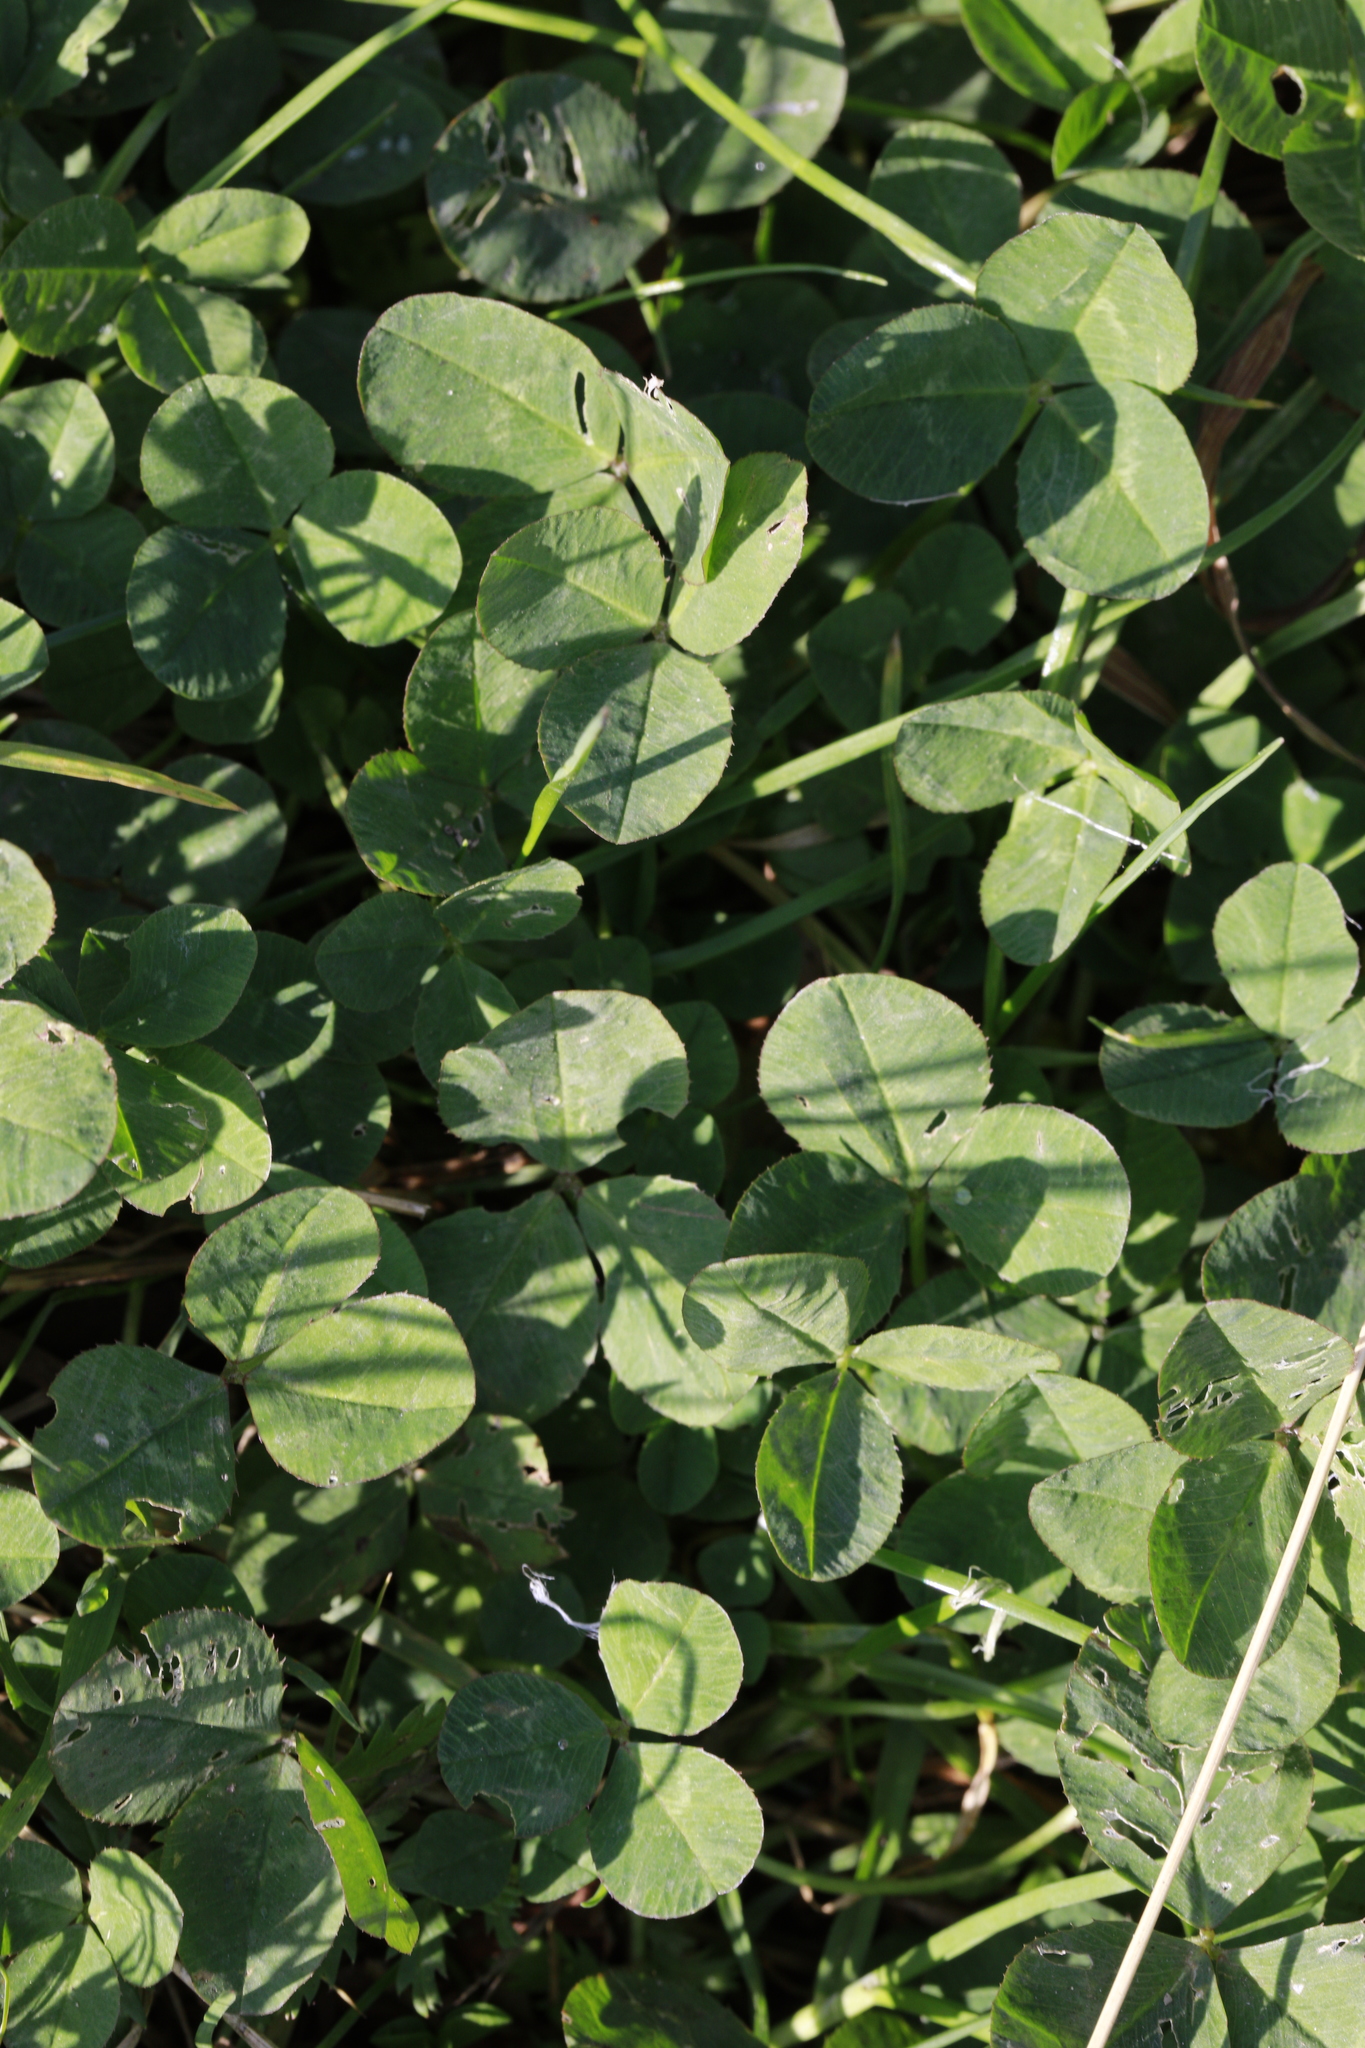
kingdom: Plantae
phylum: Tracheophyta
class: Magnoliopsida
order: Fabales
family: Fabaceae
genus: Trifolium
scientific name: Trifolium repens
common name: White clover
